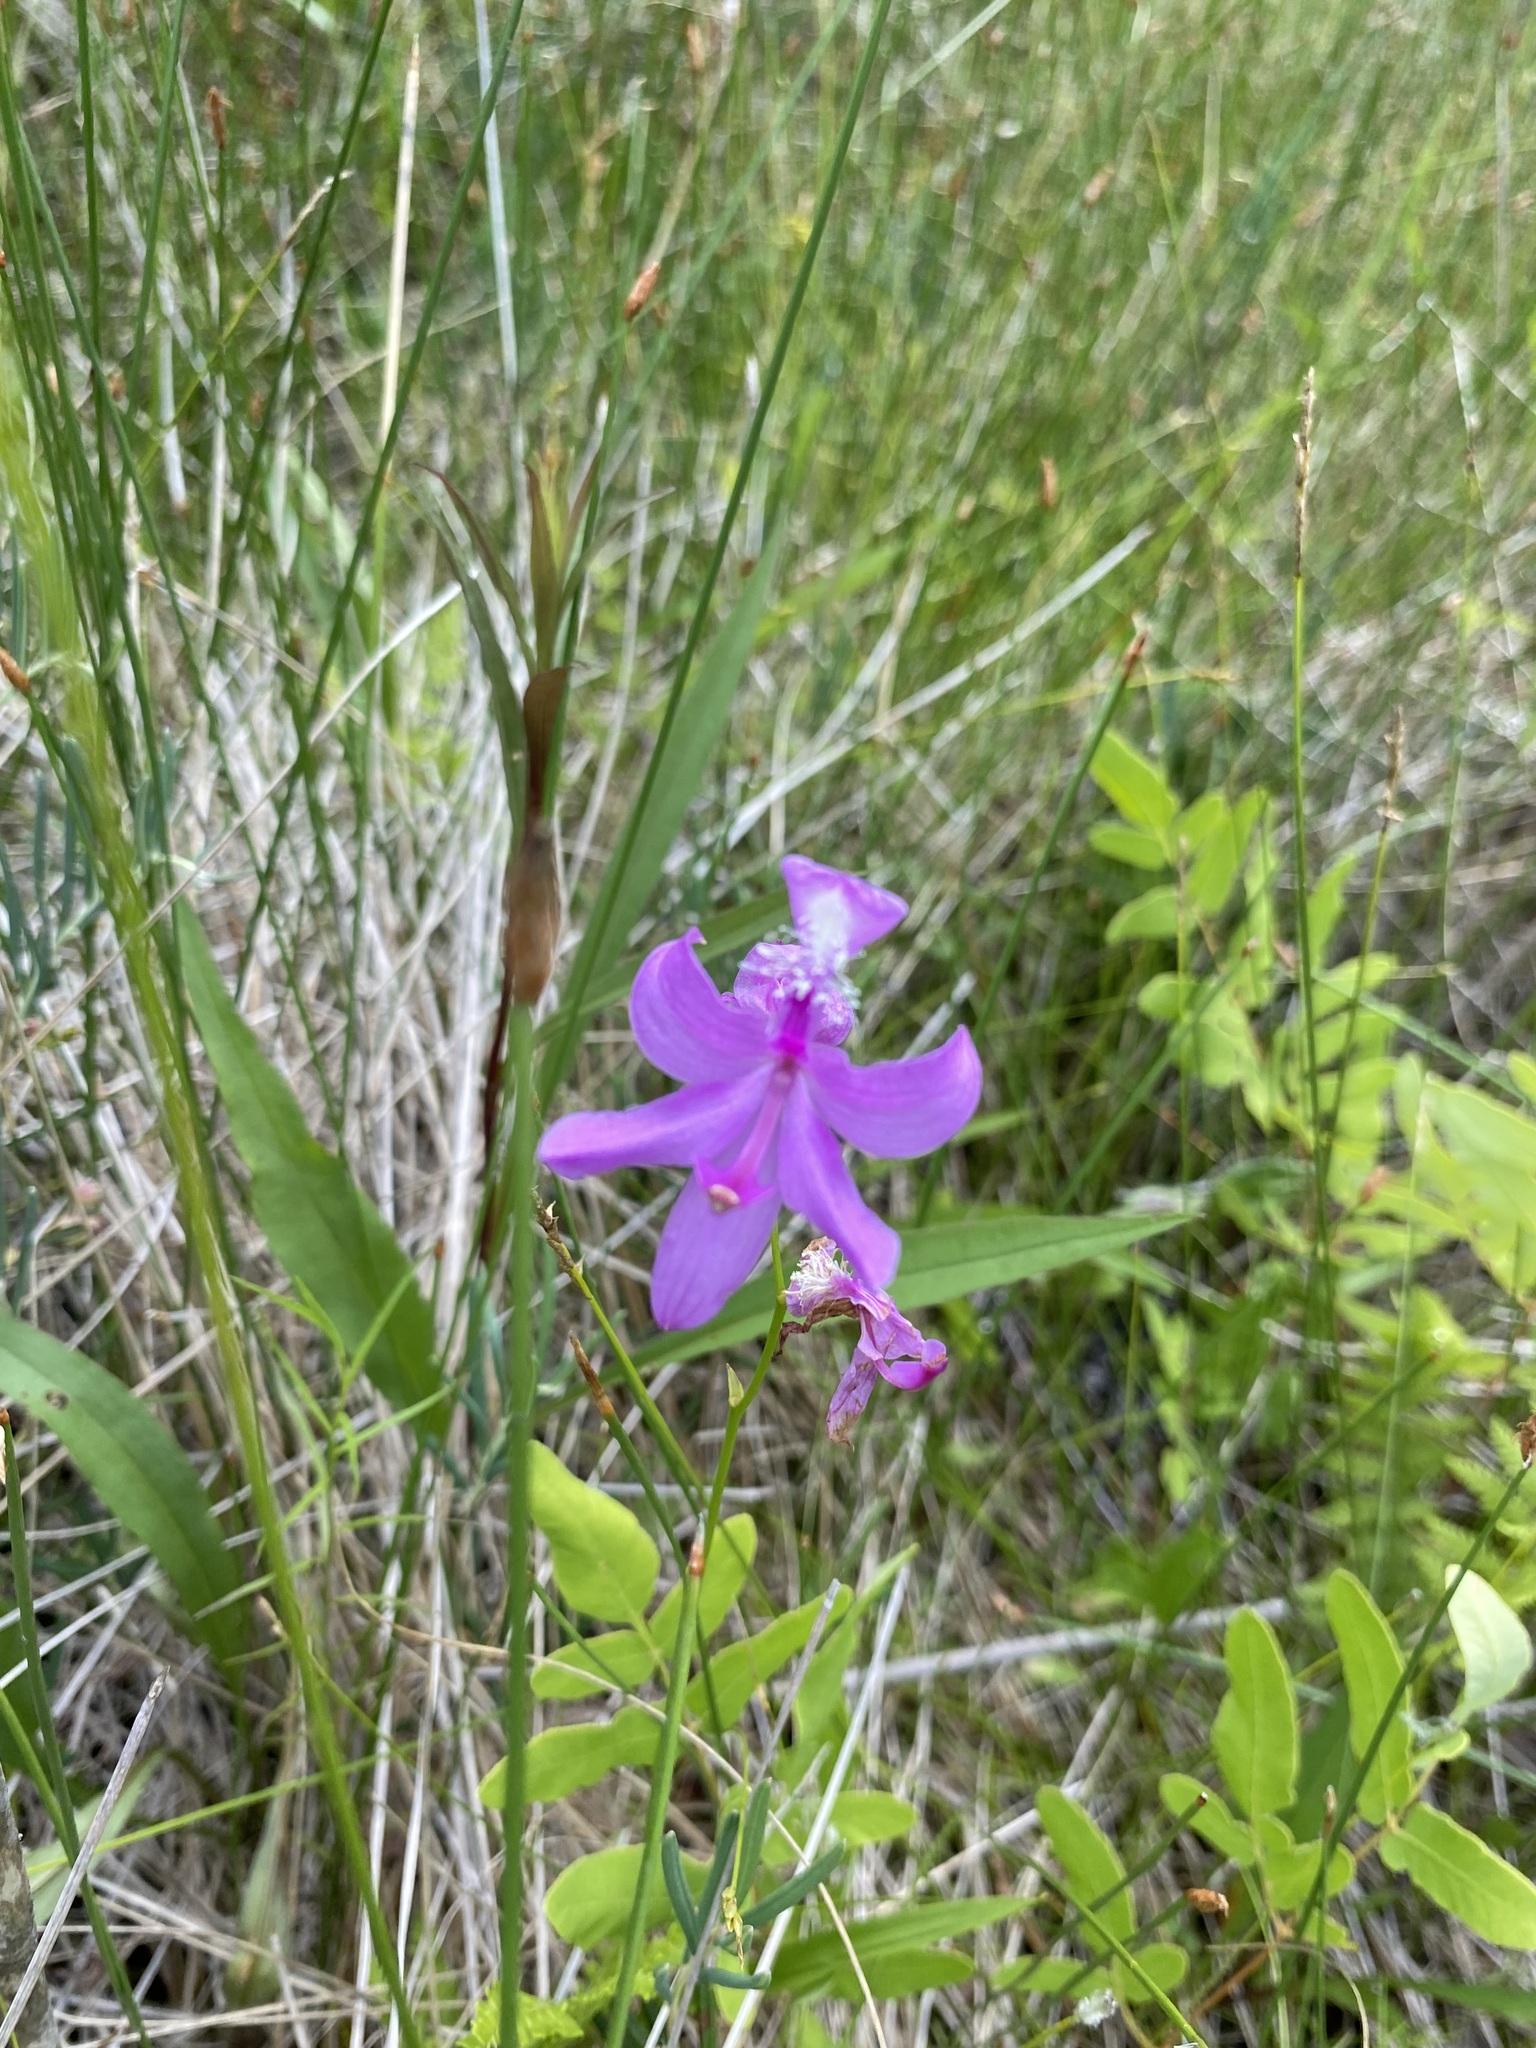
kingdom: Plantae
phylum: Tracheophyta
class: Liliopsida
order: Asparagales
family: Orchidaceae
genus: Calopogon
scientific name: Calopogon tuberosus
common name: Grass-pink
